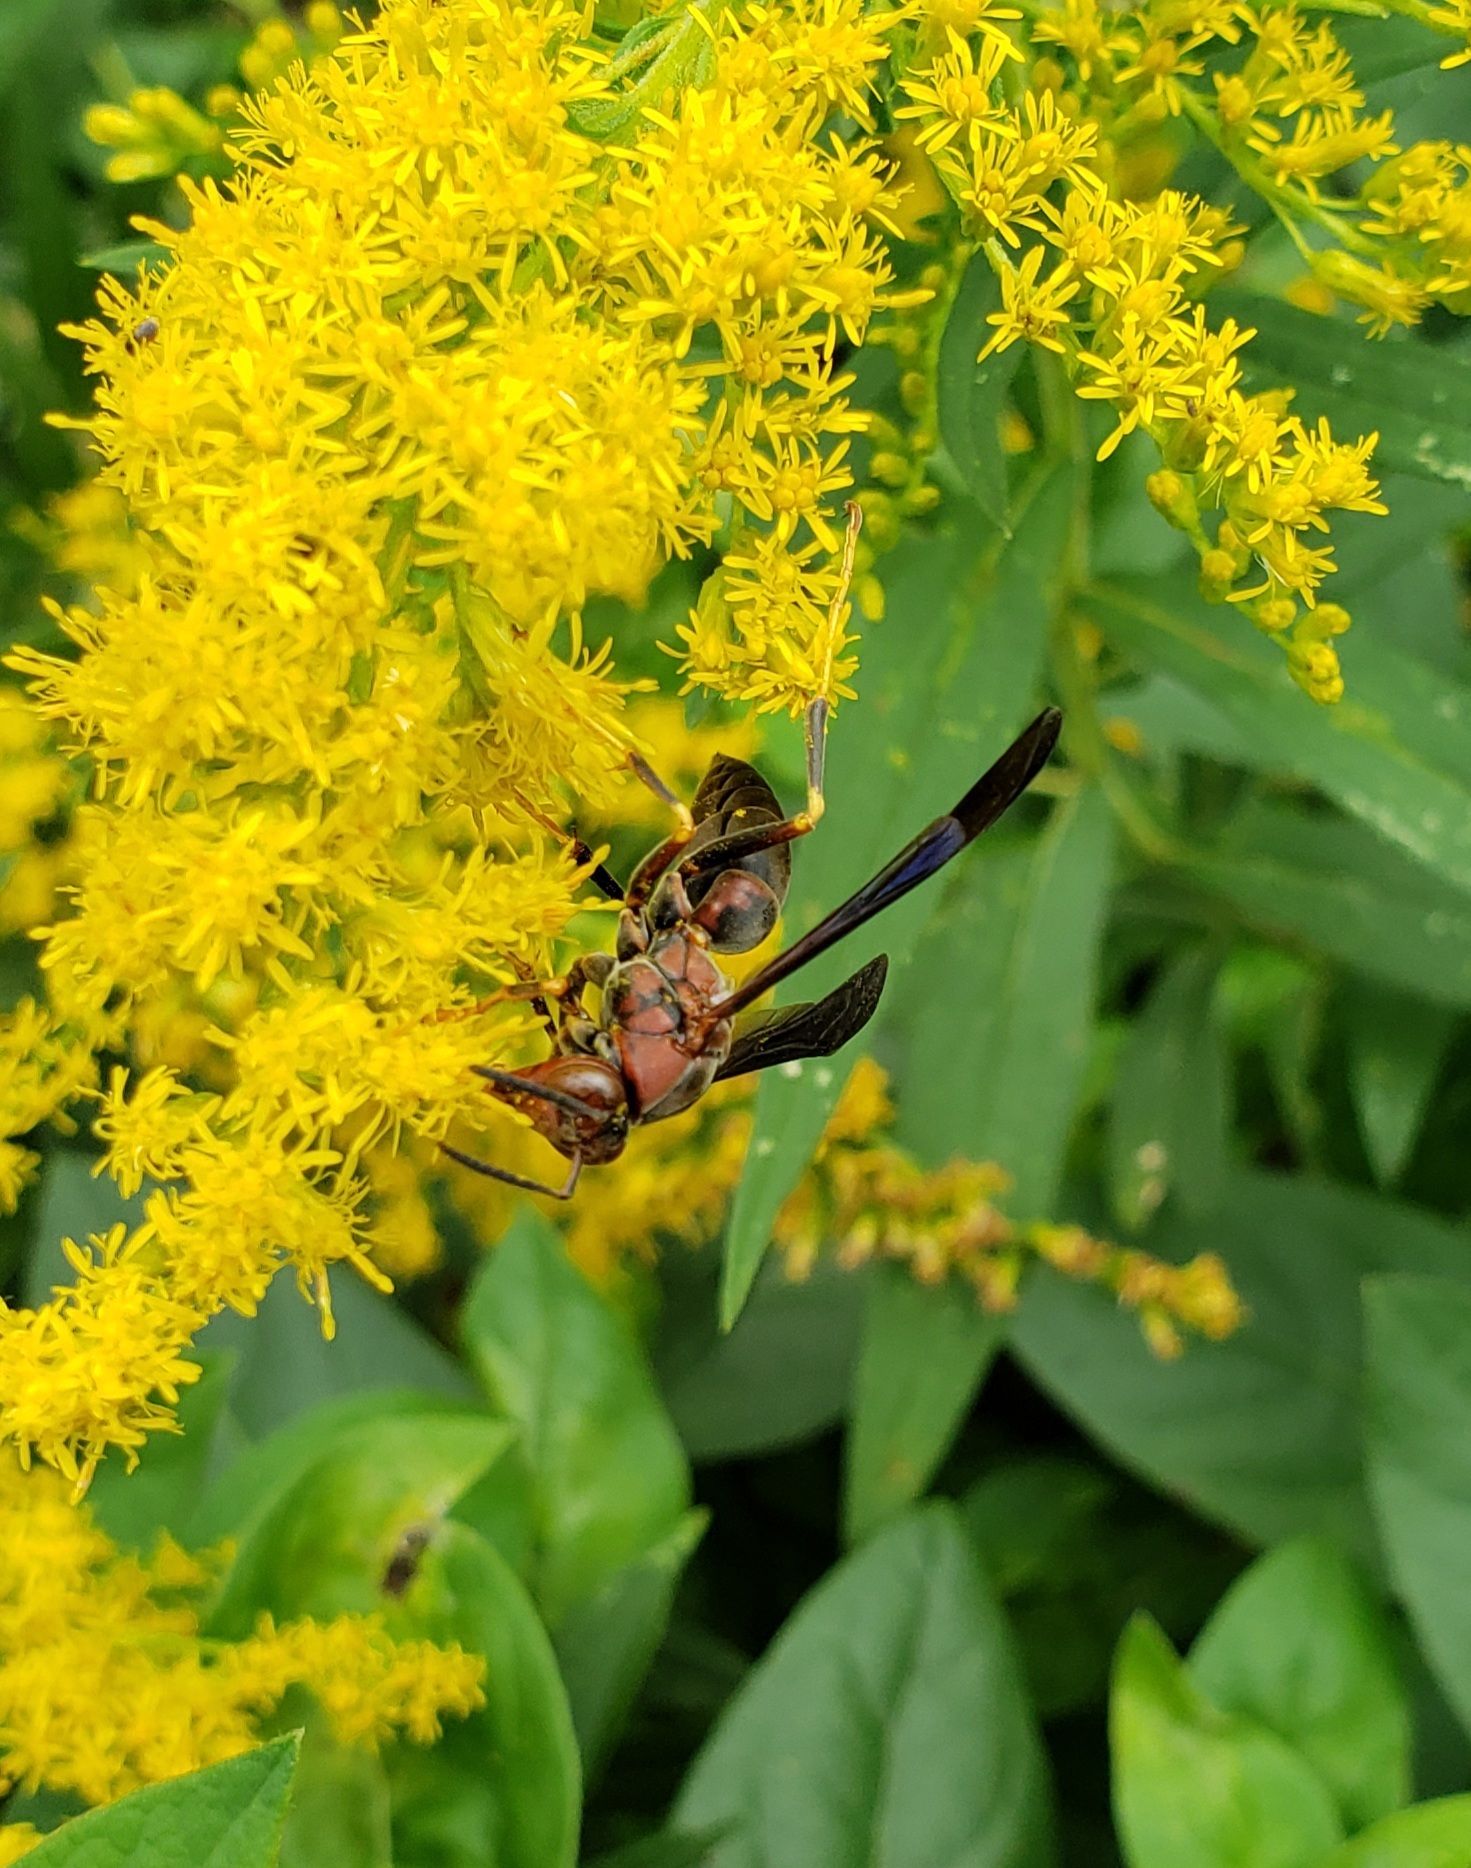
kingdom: Animalia
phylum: Arthropoda
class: Insecta
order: Hymenoptera
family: Eumenidae
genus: Polistes
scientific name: Polistes metricus
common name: Metric paper wasp
